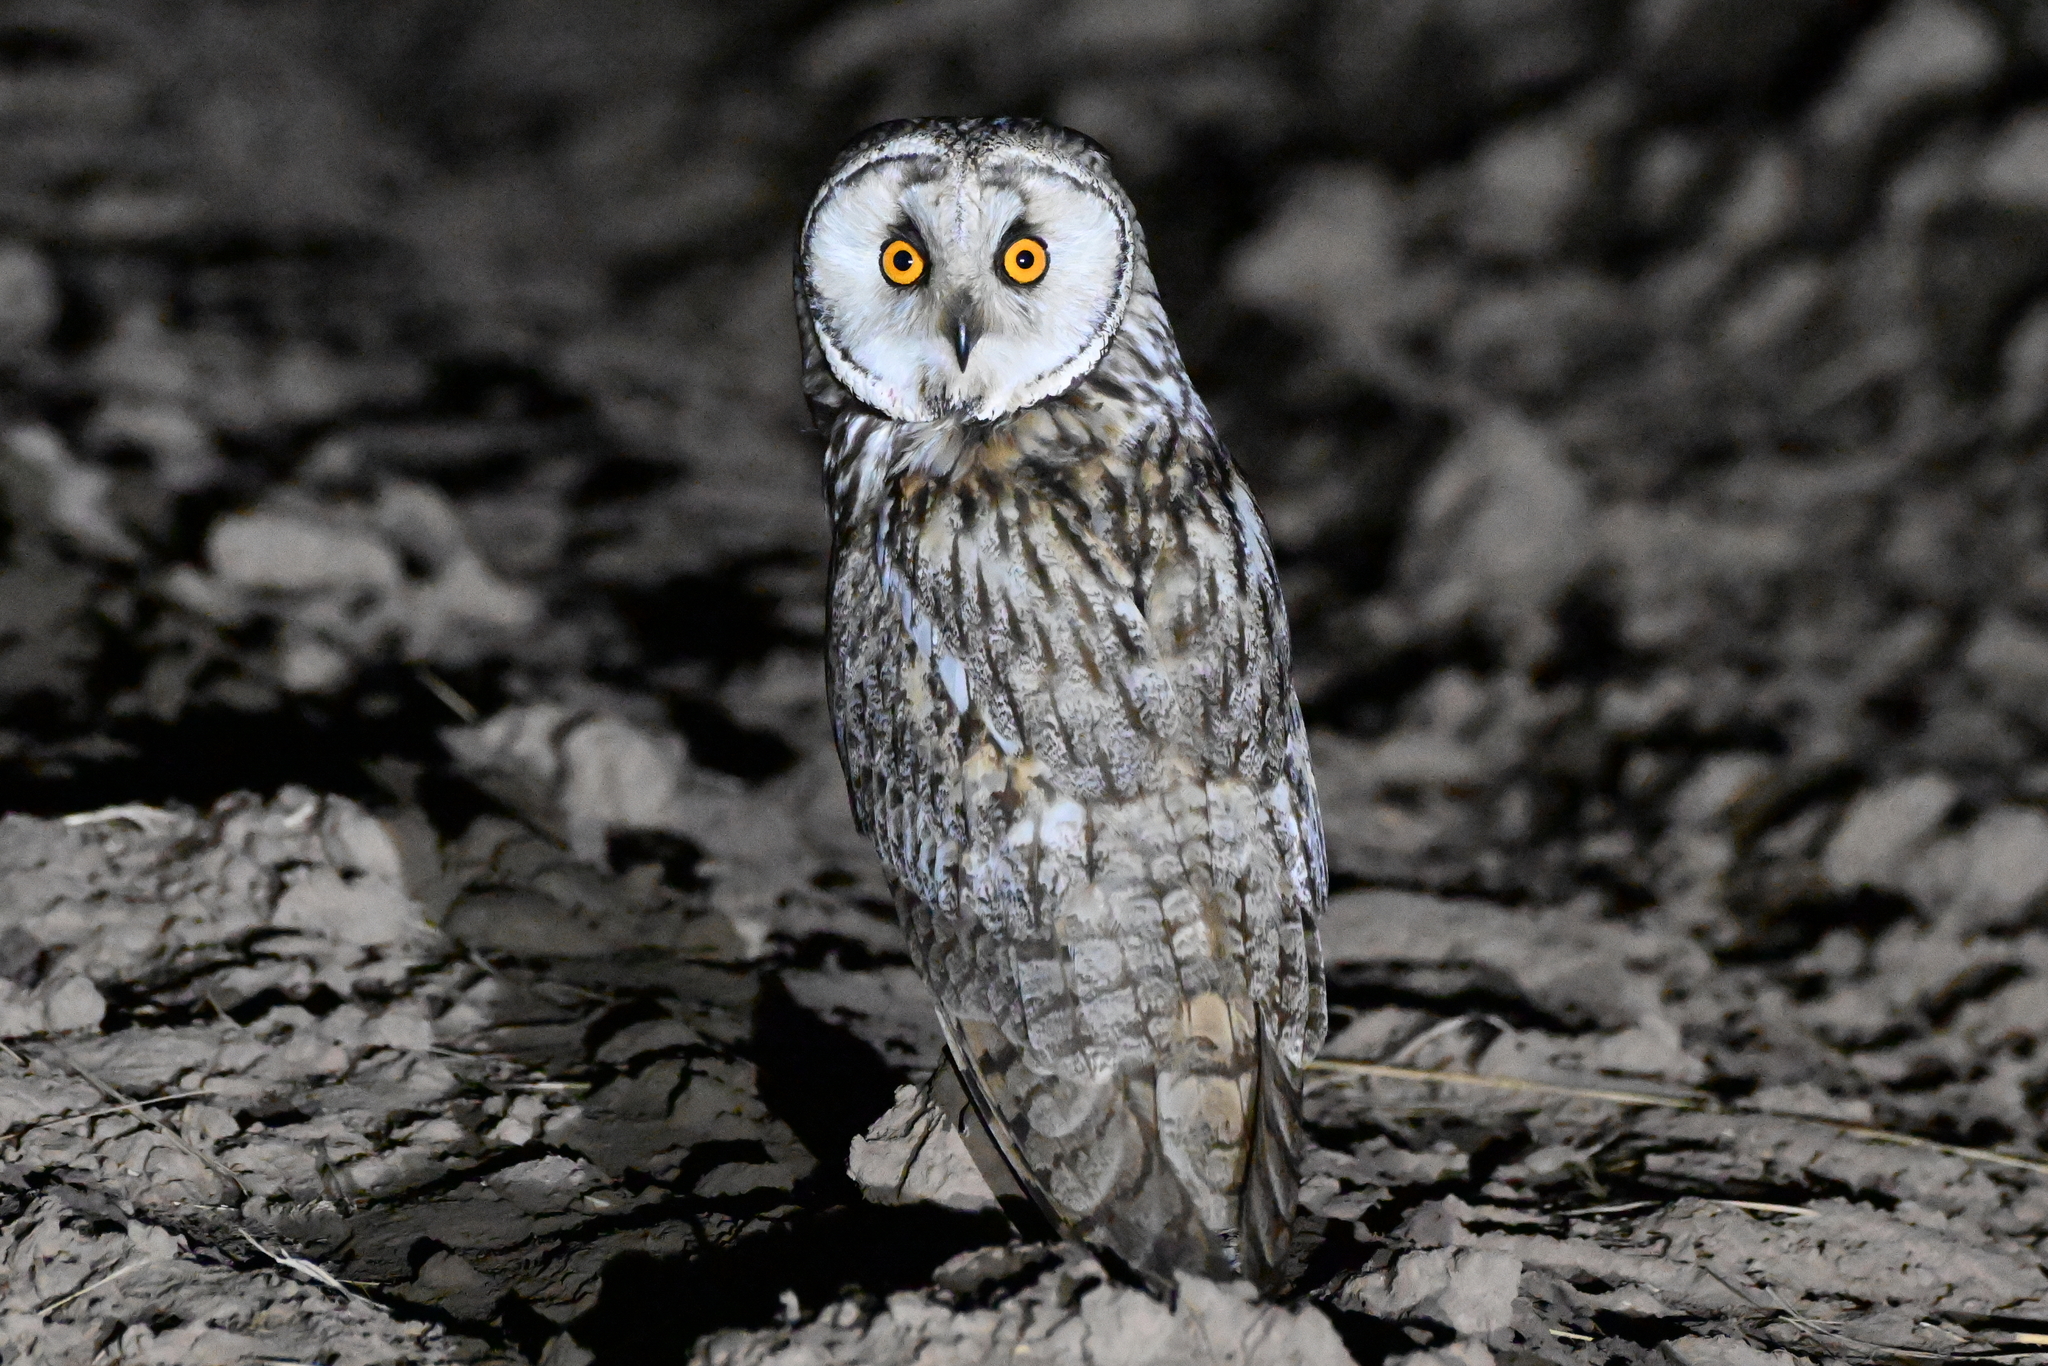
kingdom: Animalia
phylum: Chordata
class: Aves
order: Strigiformes
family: Strigidae
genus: Asio
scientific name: Asio otus
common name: Long-eared owl
